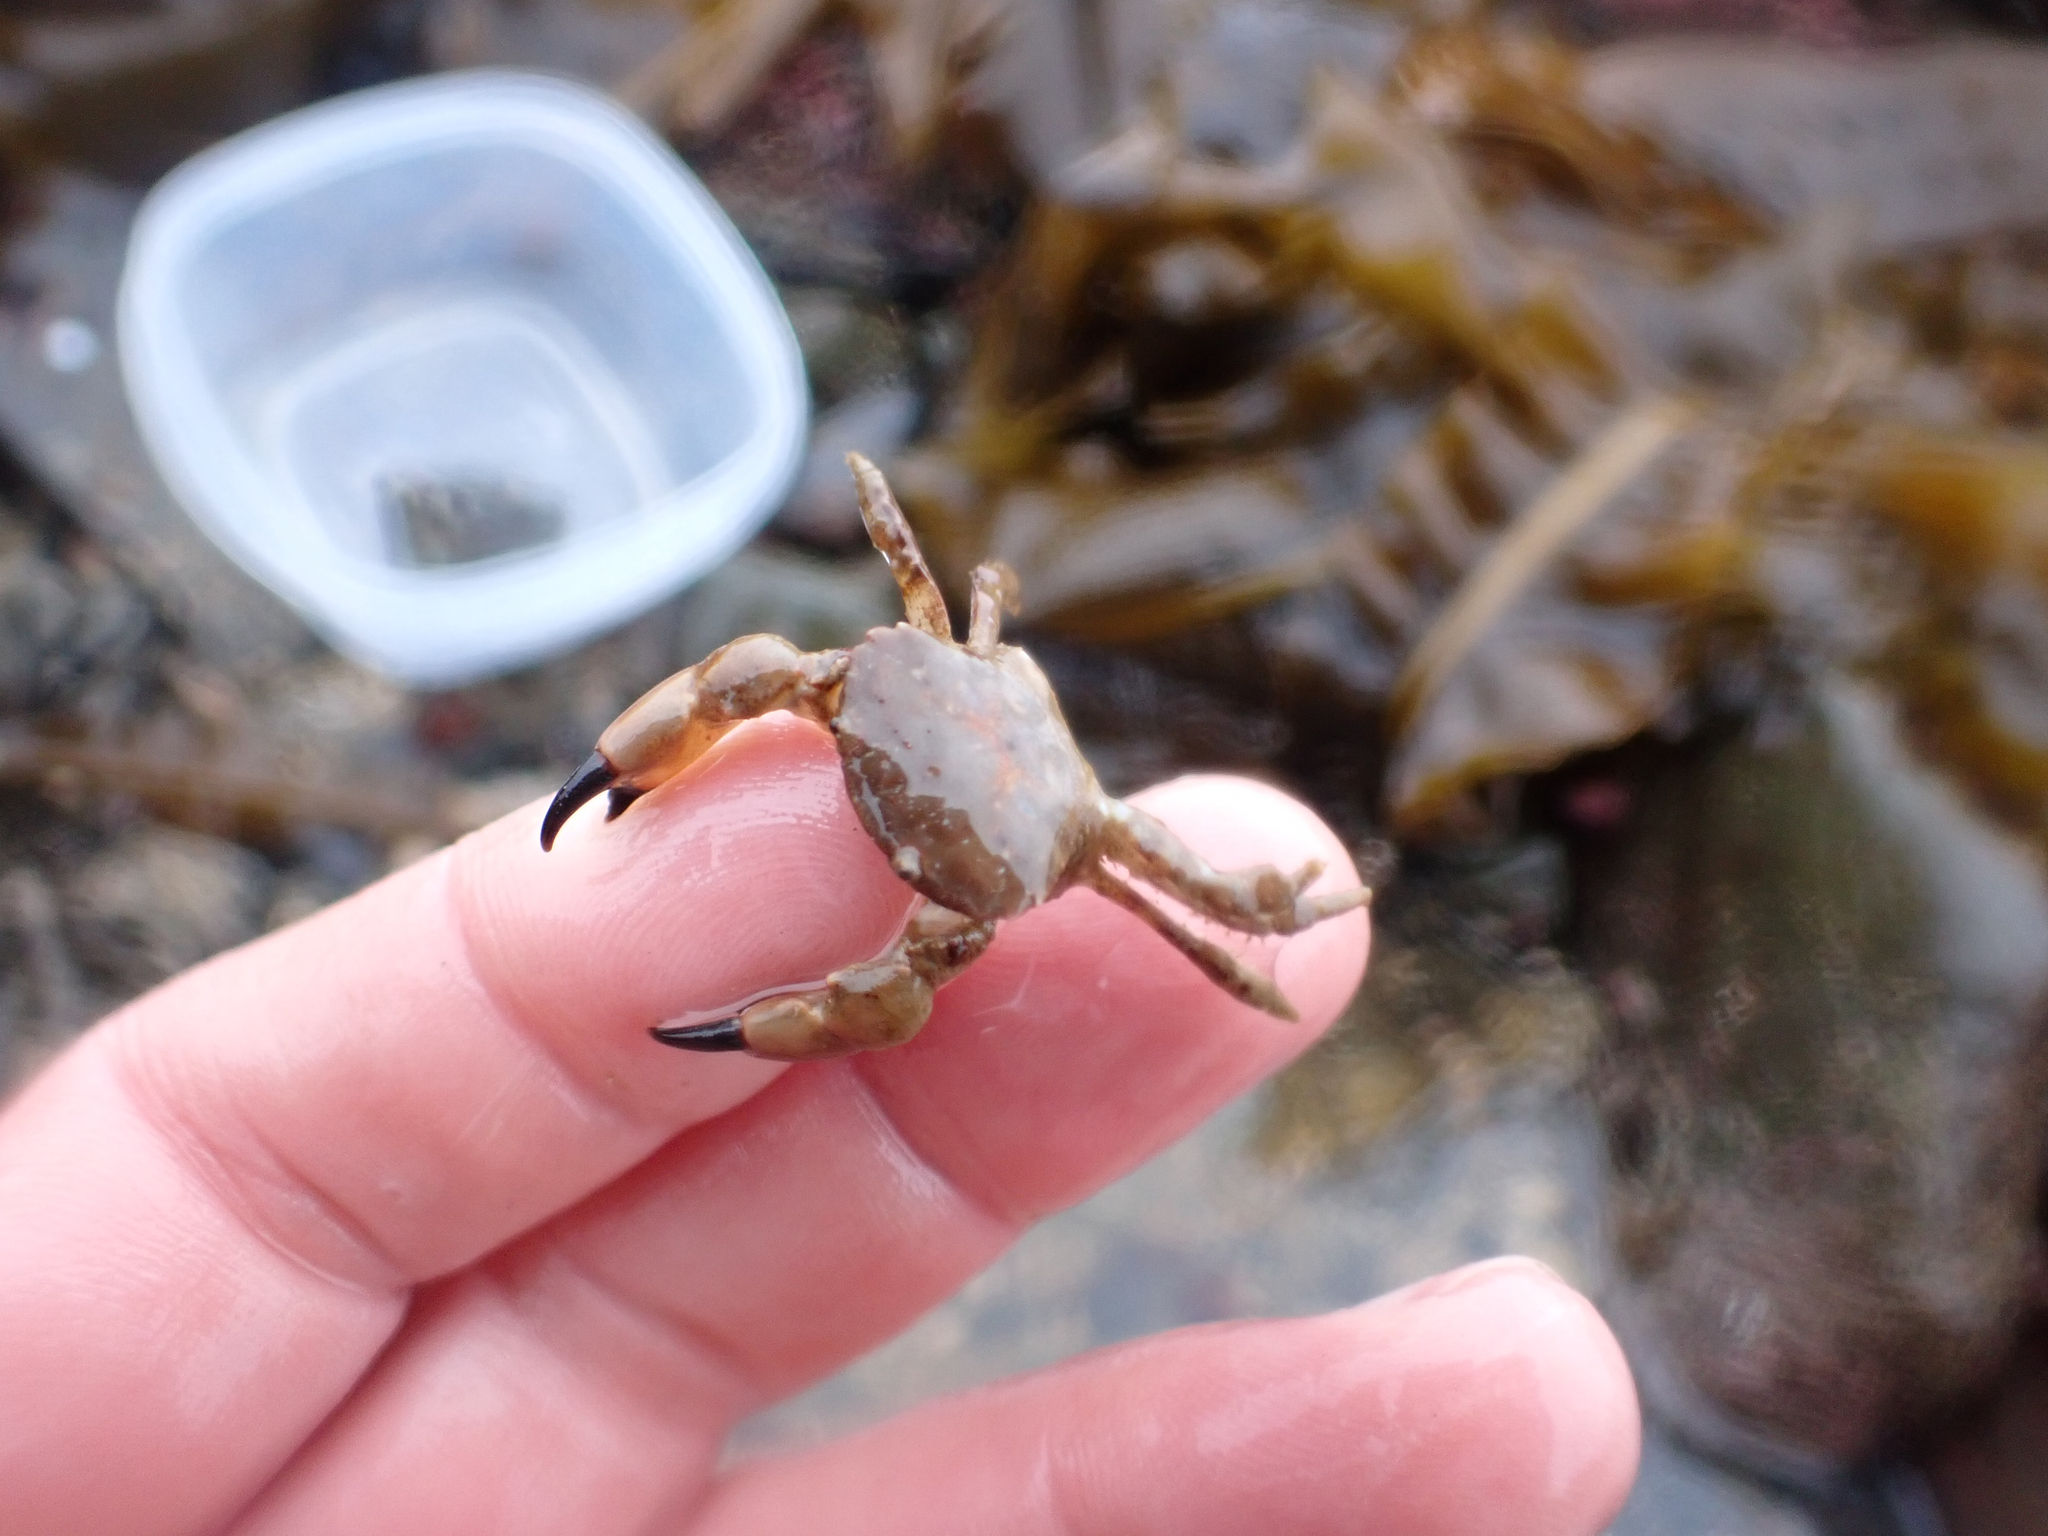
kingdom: Animalia
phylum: Arthropoda
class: Malacostraca
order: Decapoda
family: Panopeidae
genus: Lophopanopeus
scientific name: Lophopanopeus bellus
